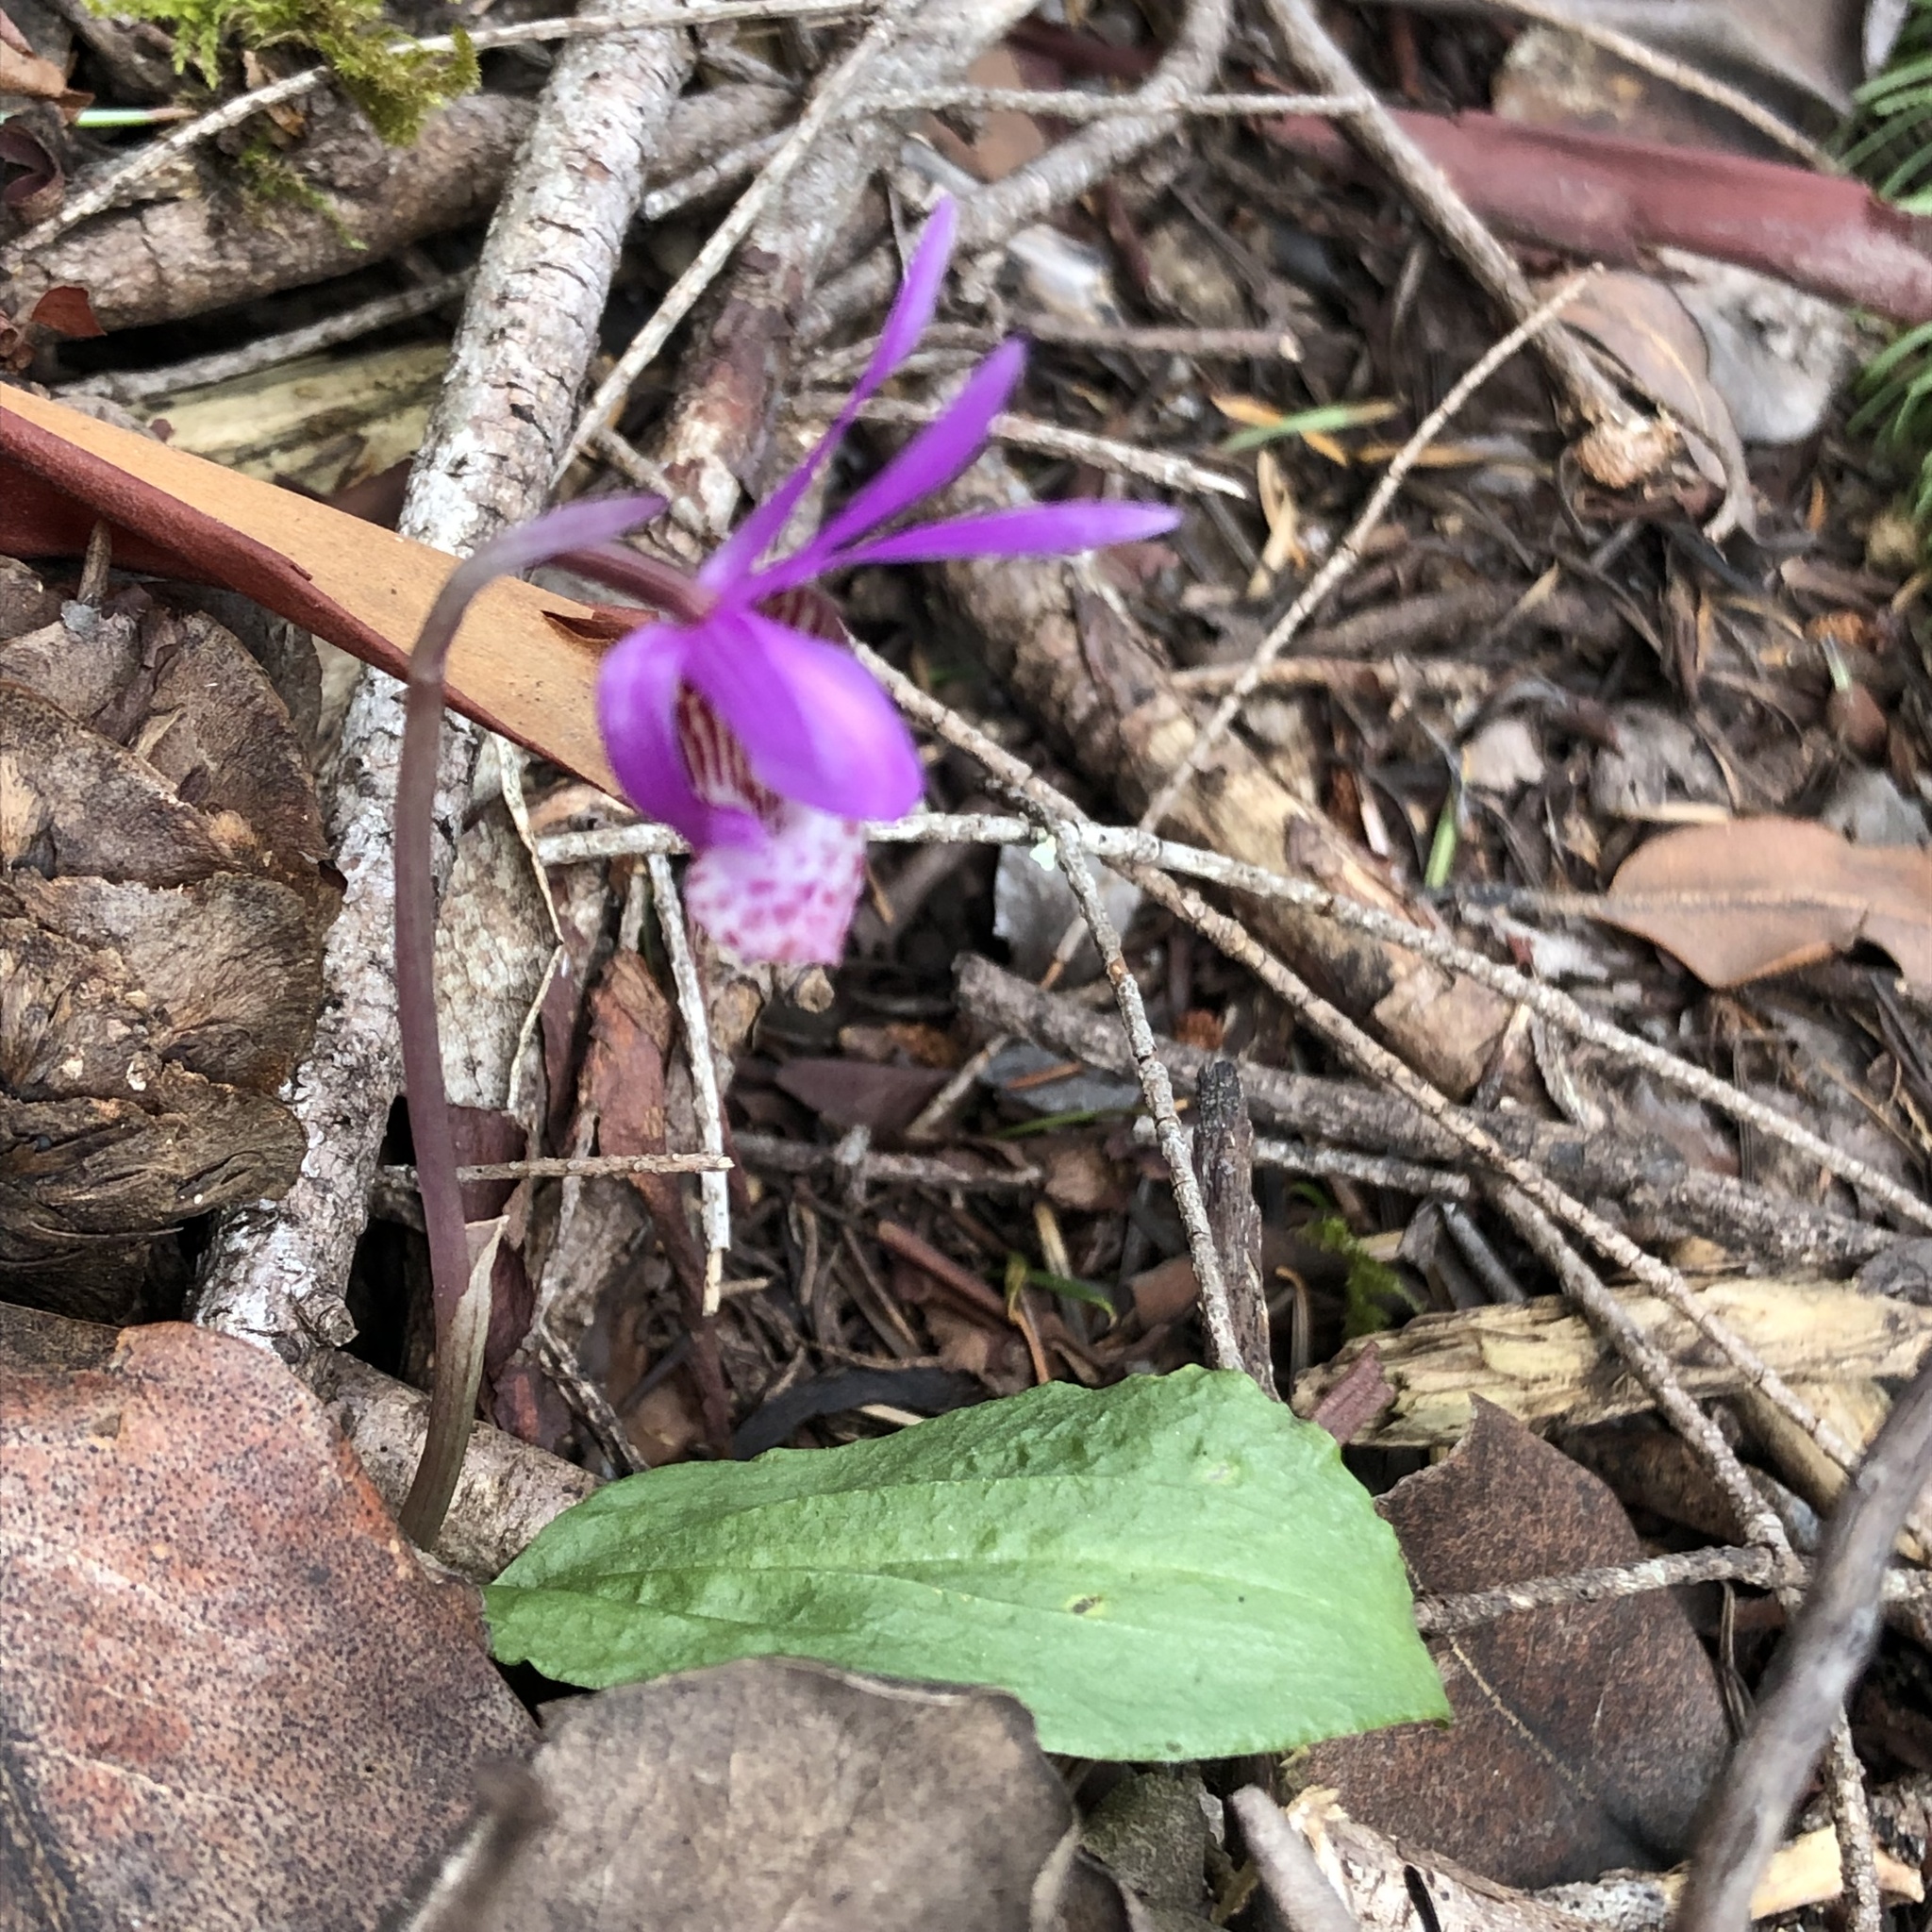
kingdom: Plantae
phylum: Tracheophyta
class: Liliopsida
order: Asparagales
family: Orchidaceae
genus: Calypso
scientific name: Calypso bulbosa
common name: Calypso
